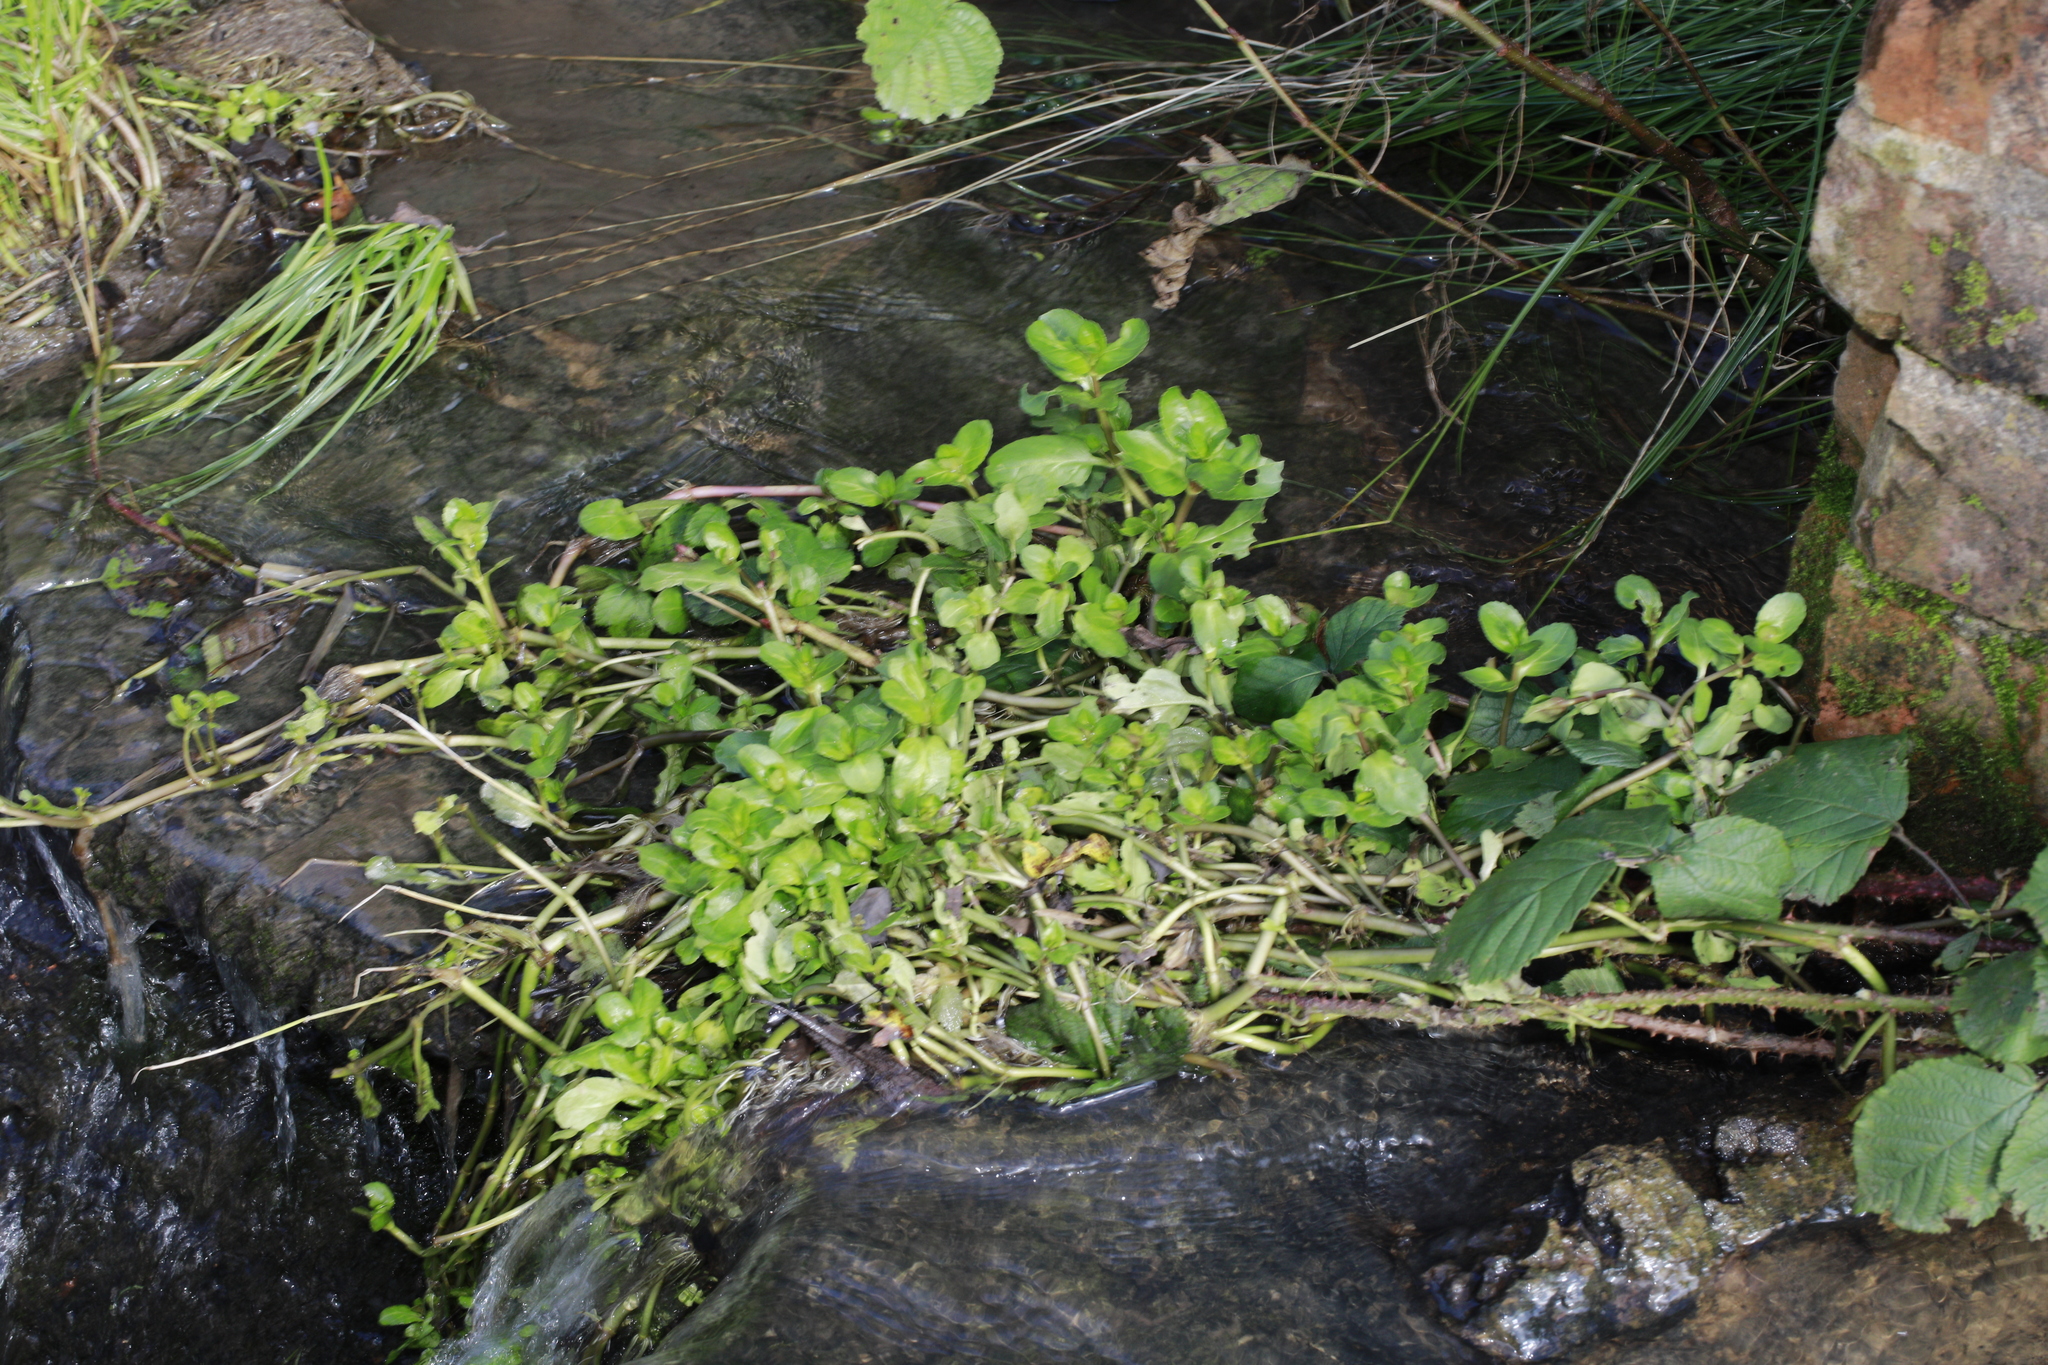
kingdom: Plantae
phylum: Tracheophyta
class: Magnoliopsida
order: Lamiales
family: Plantaginaceae
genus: Veronica
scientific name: Veronica beccabunga
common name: Brooklime
